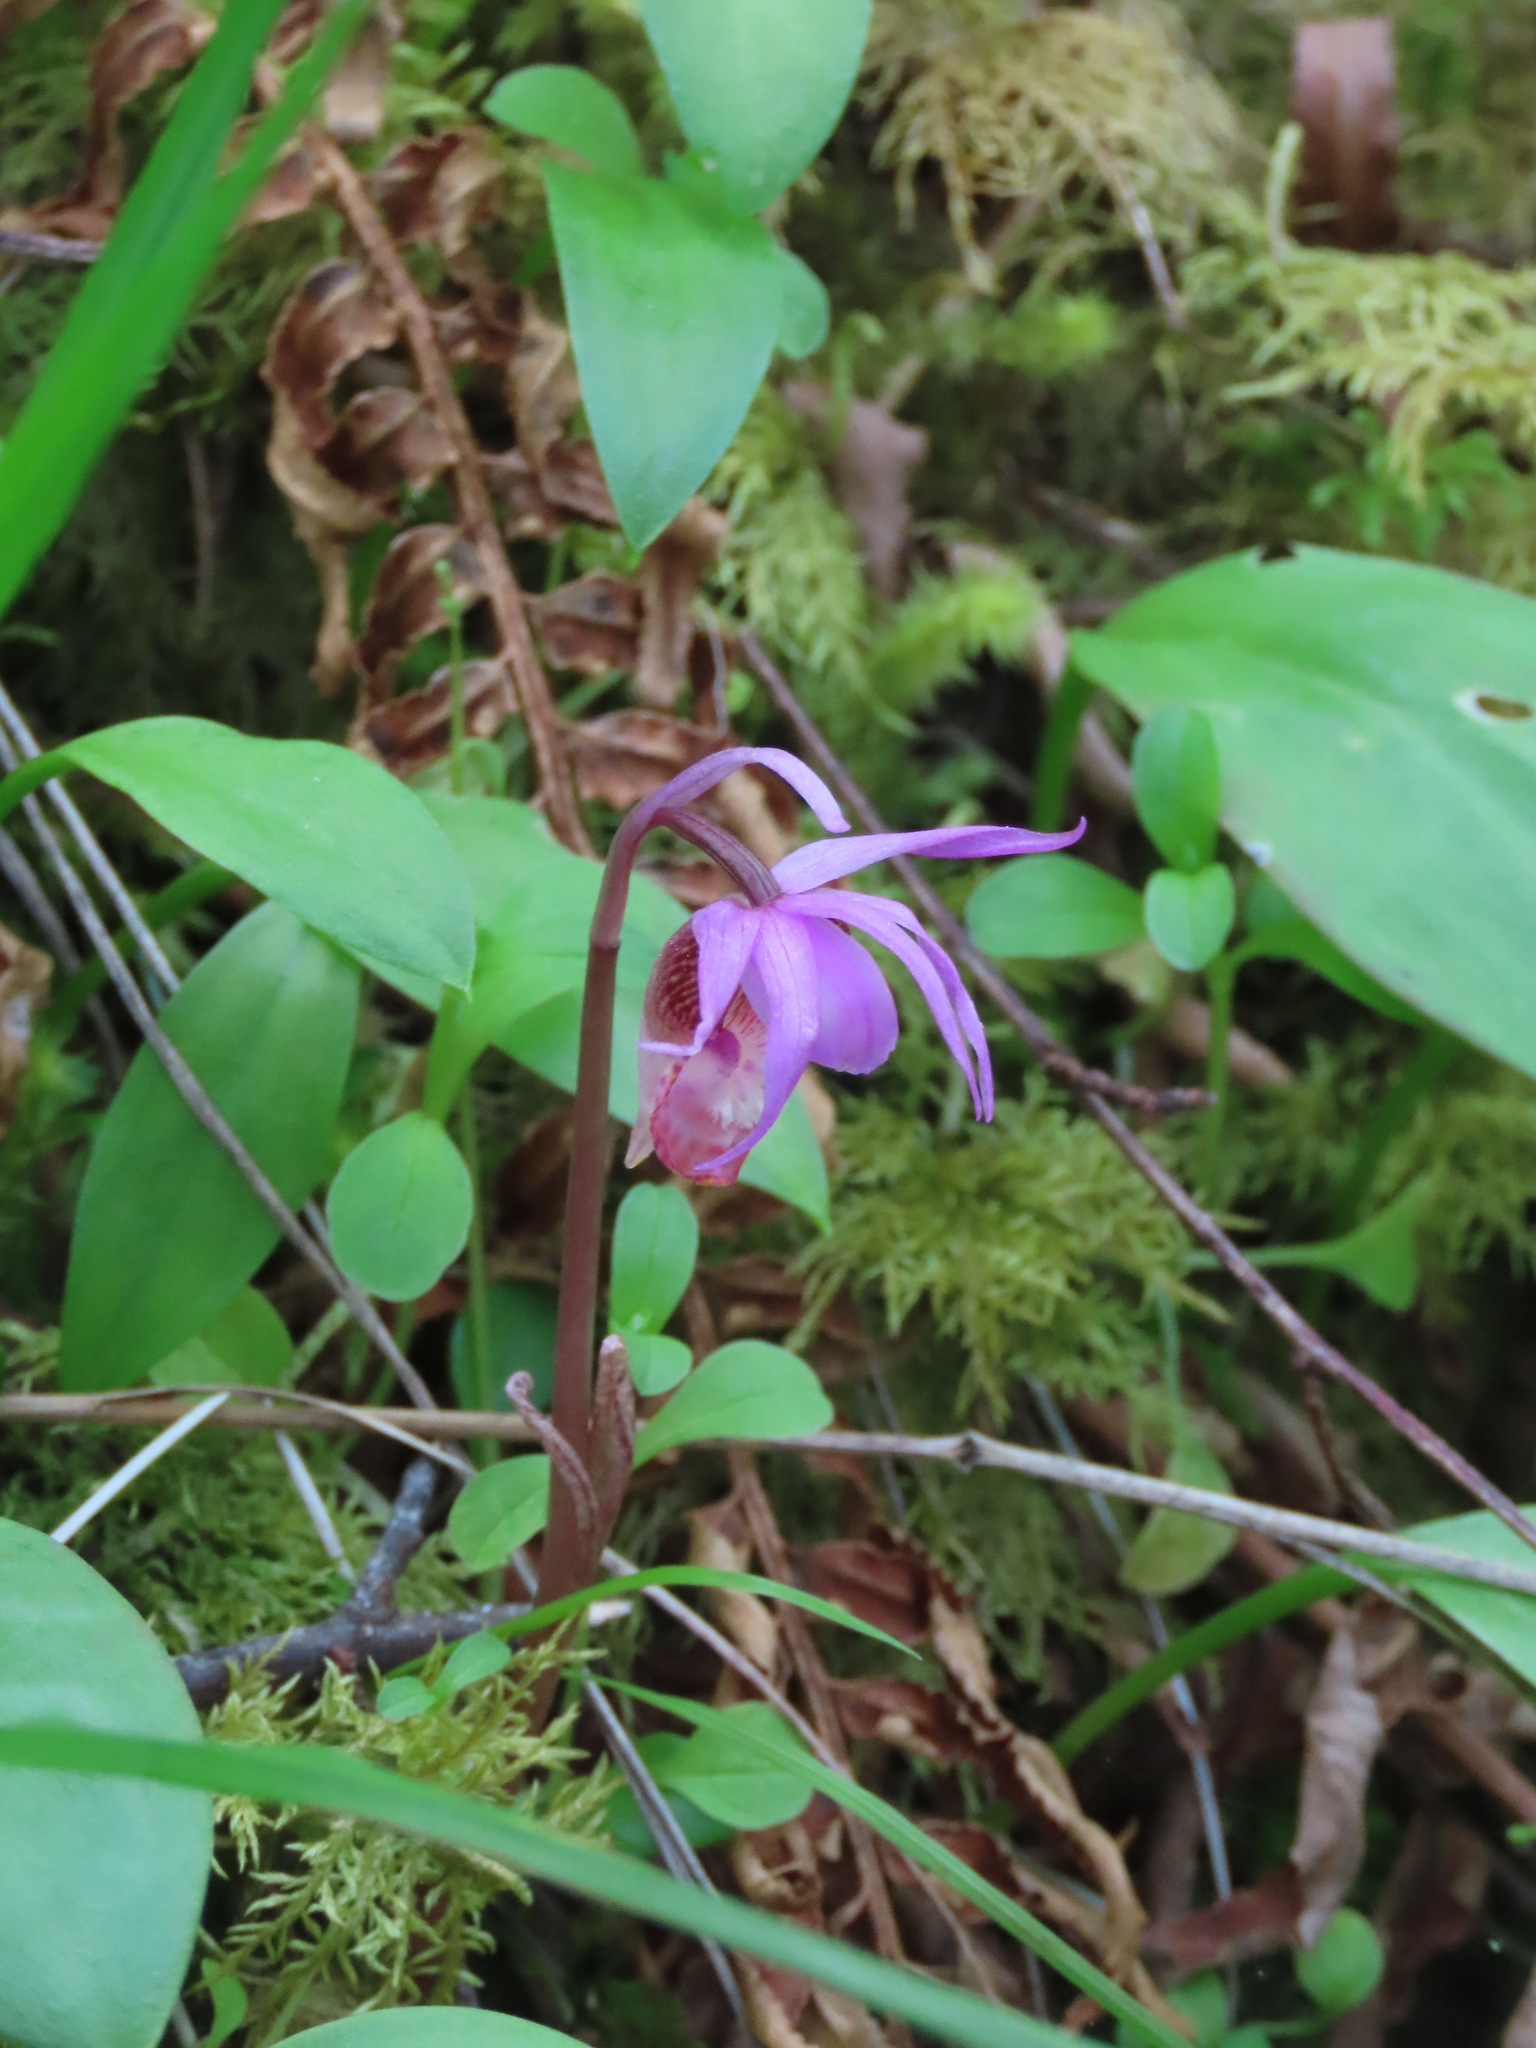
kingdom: Plantae
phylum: Tracheophyta
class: Liliopsida
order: Asparagales
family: Orchidaceae
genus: Calypso
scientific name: Calypso bulbosa
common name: Calypso
